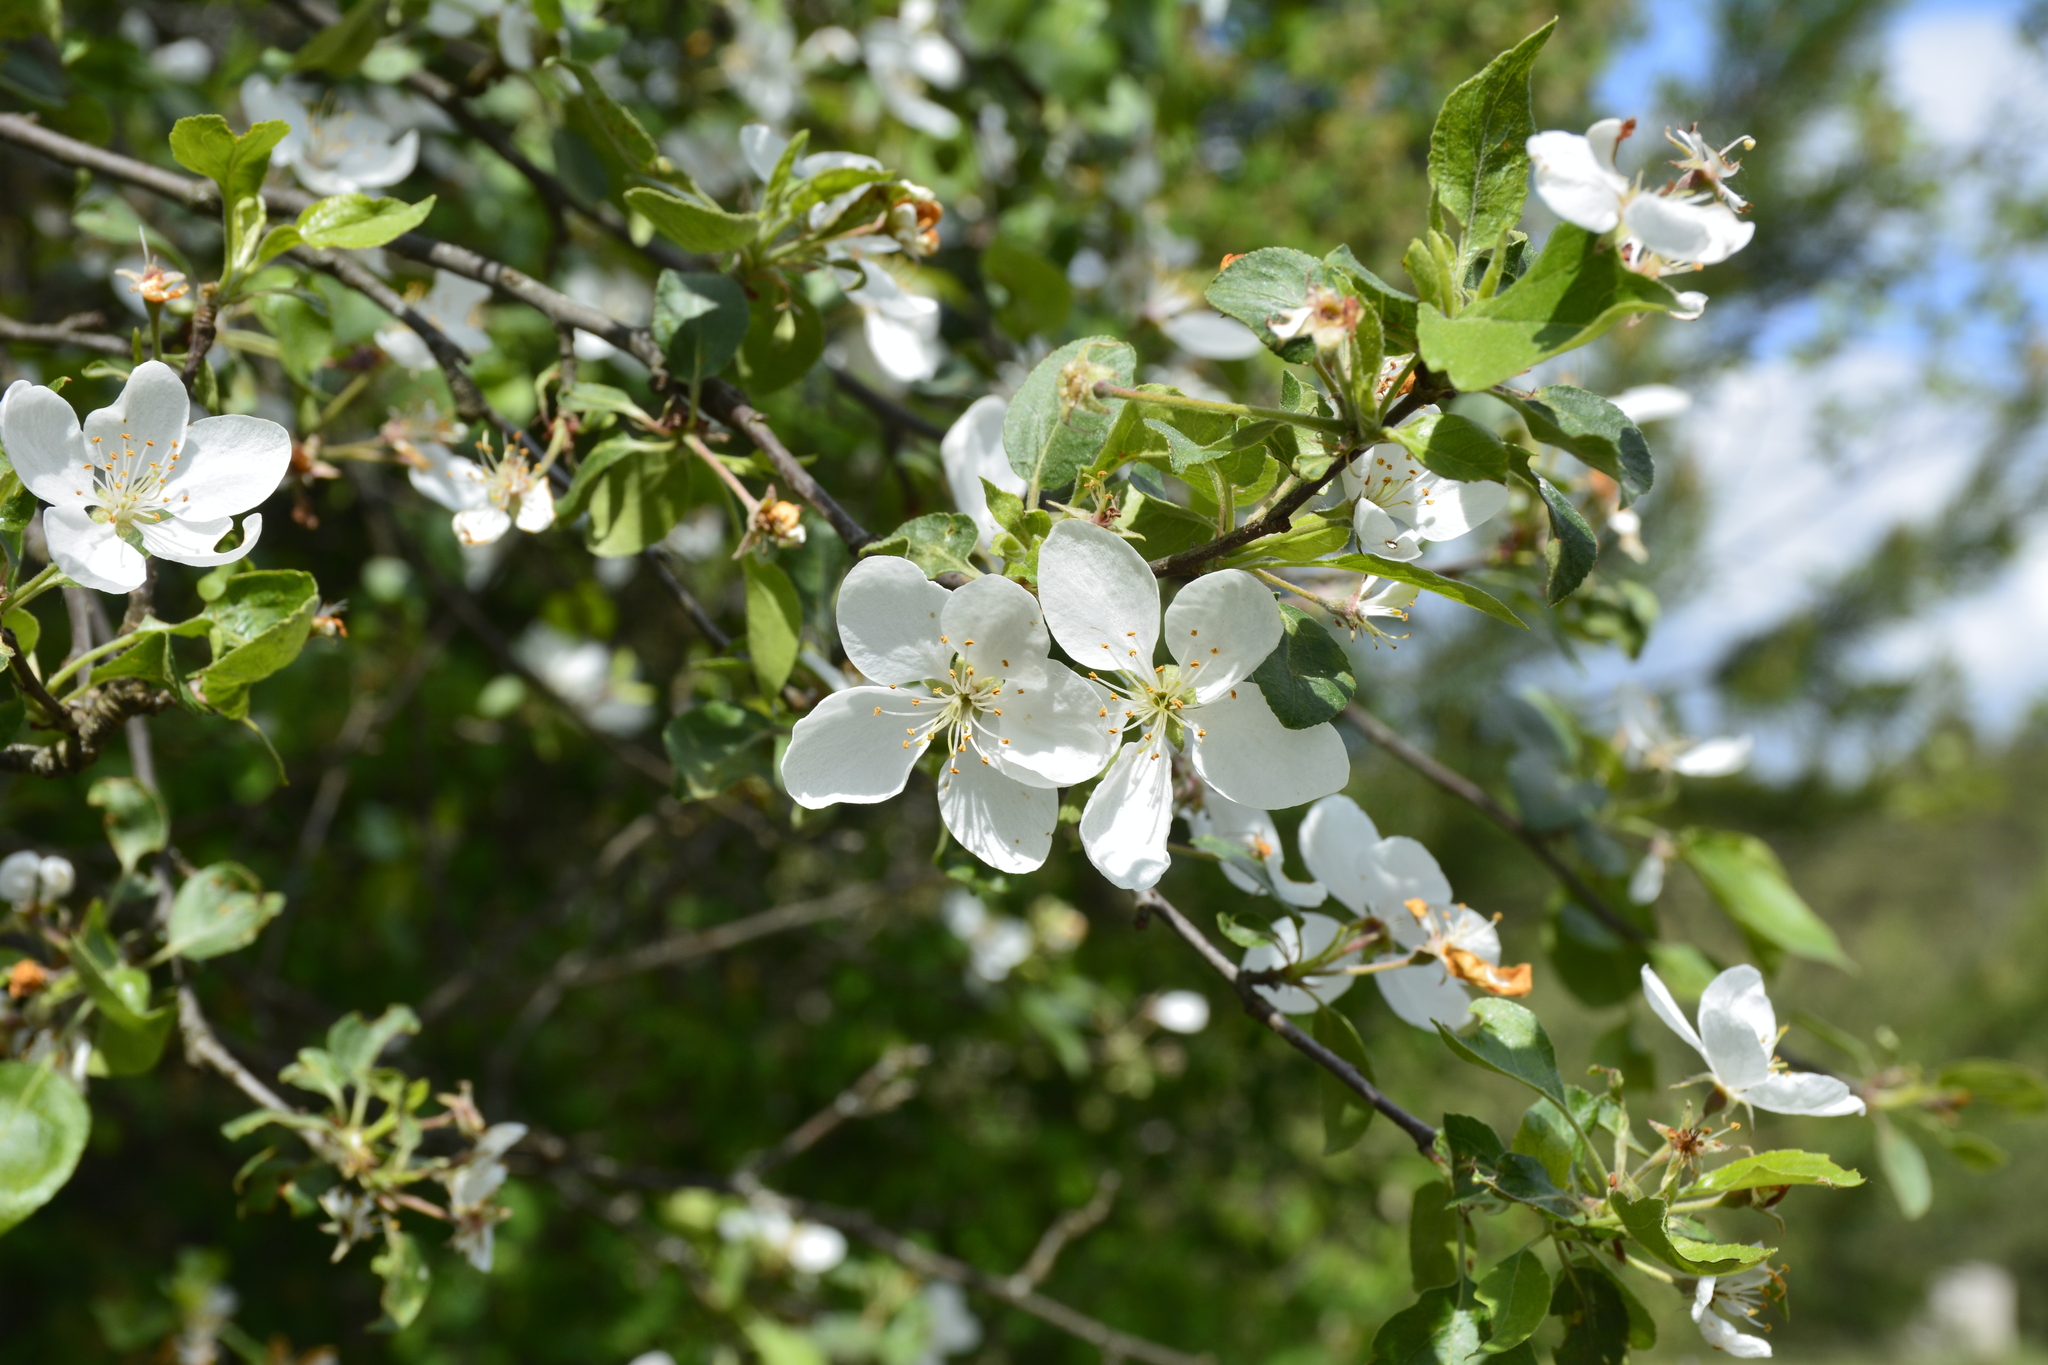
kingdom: Plantae
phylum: Tracheophyta
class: Magnoliopsida
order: Rosales
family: Rosaceae
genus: Malus
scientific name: Malus domestica
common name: Apple
